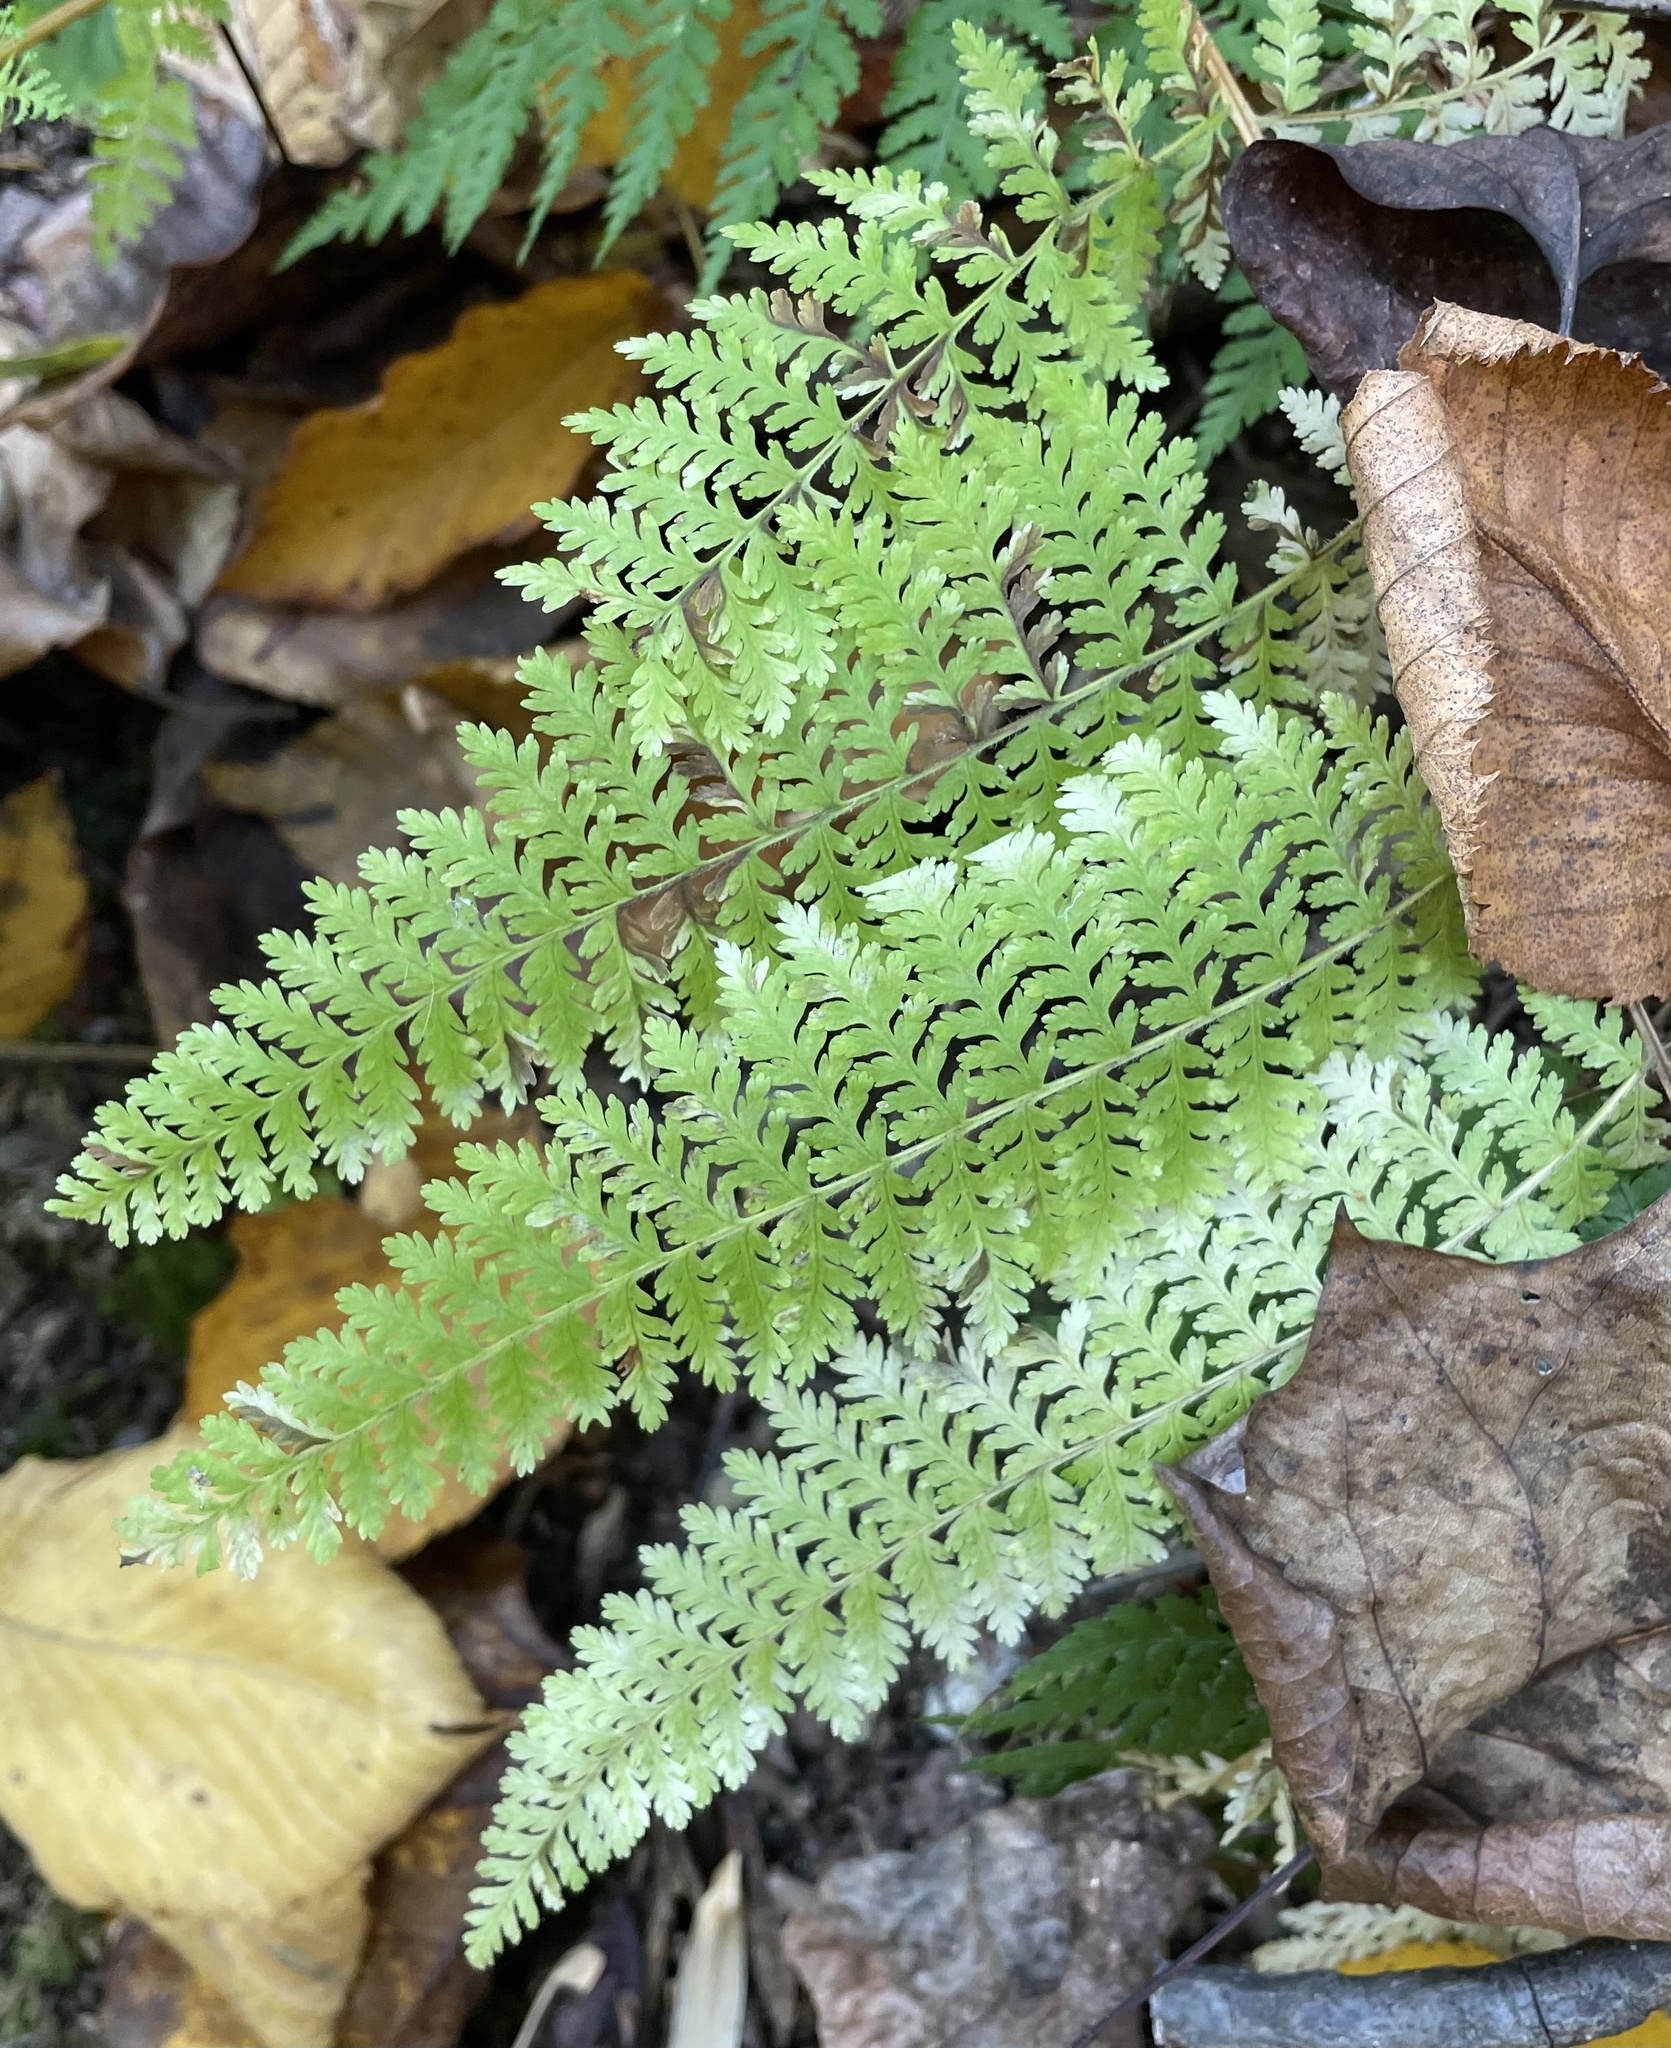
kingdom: Plantae
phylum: Tracheophyta
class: Polypodiopsida
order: Polypodiales
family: Dennstaedtiaceae
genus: Sitobolium
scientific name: Sitobolium punctilobum
